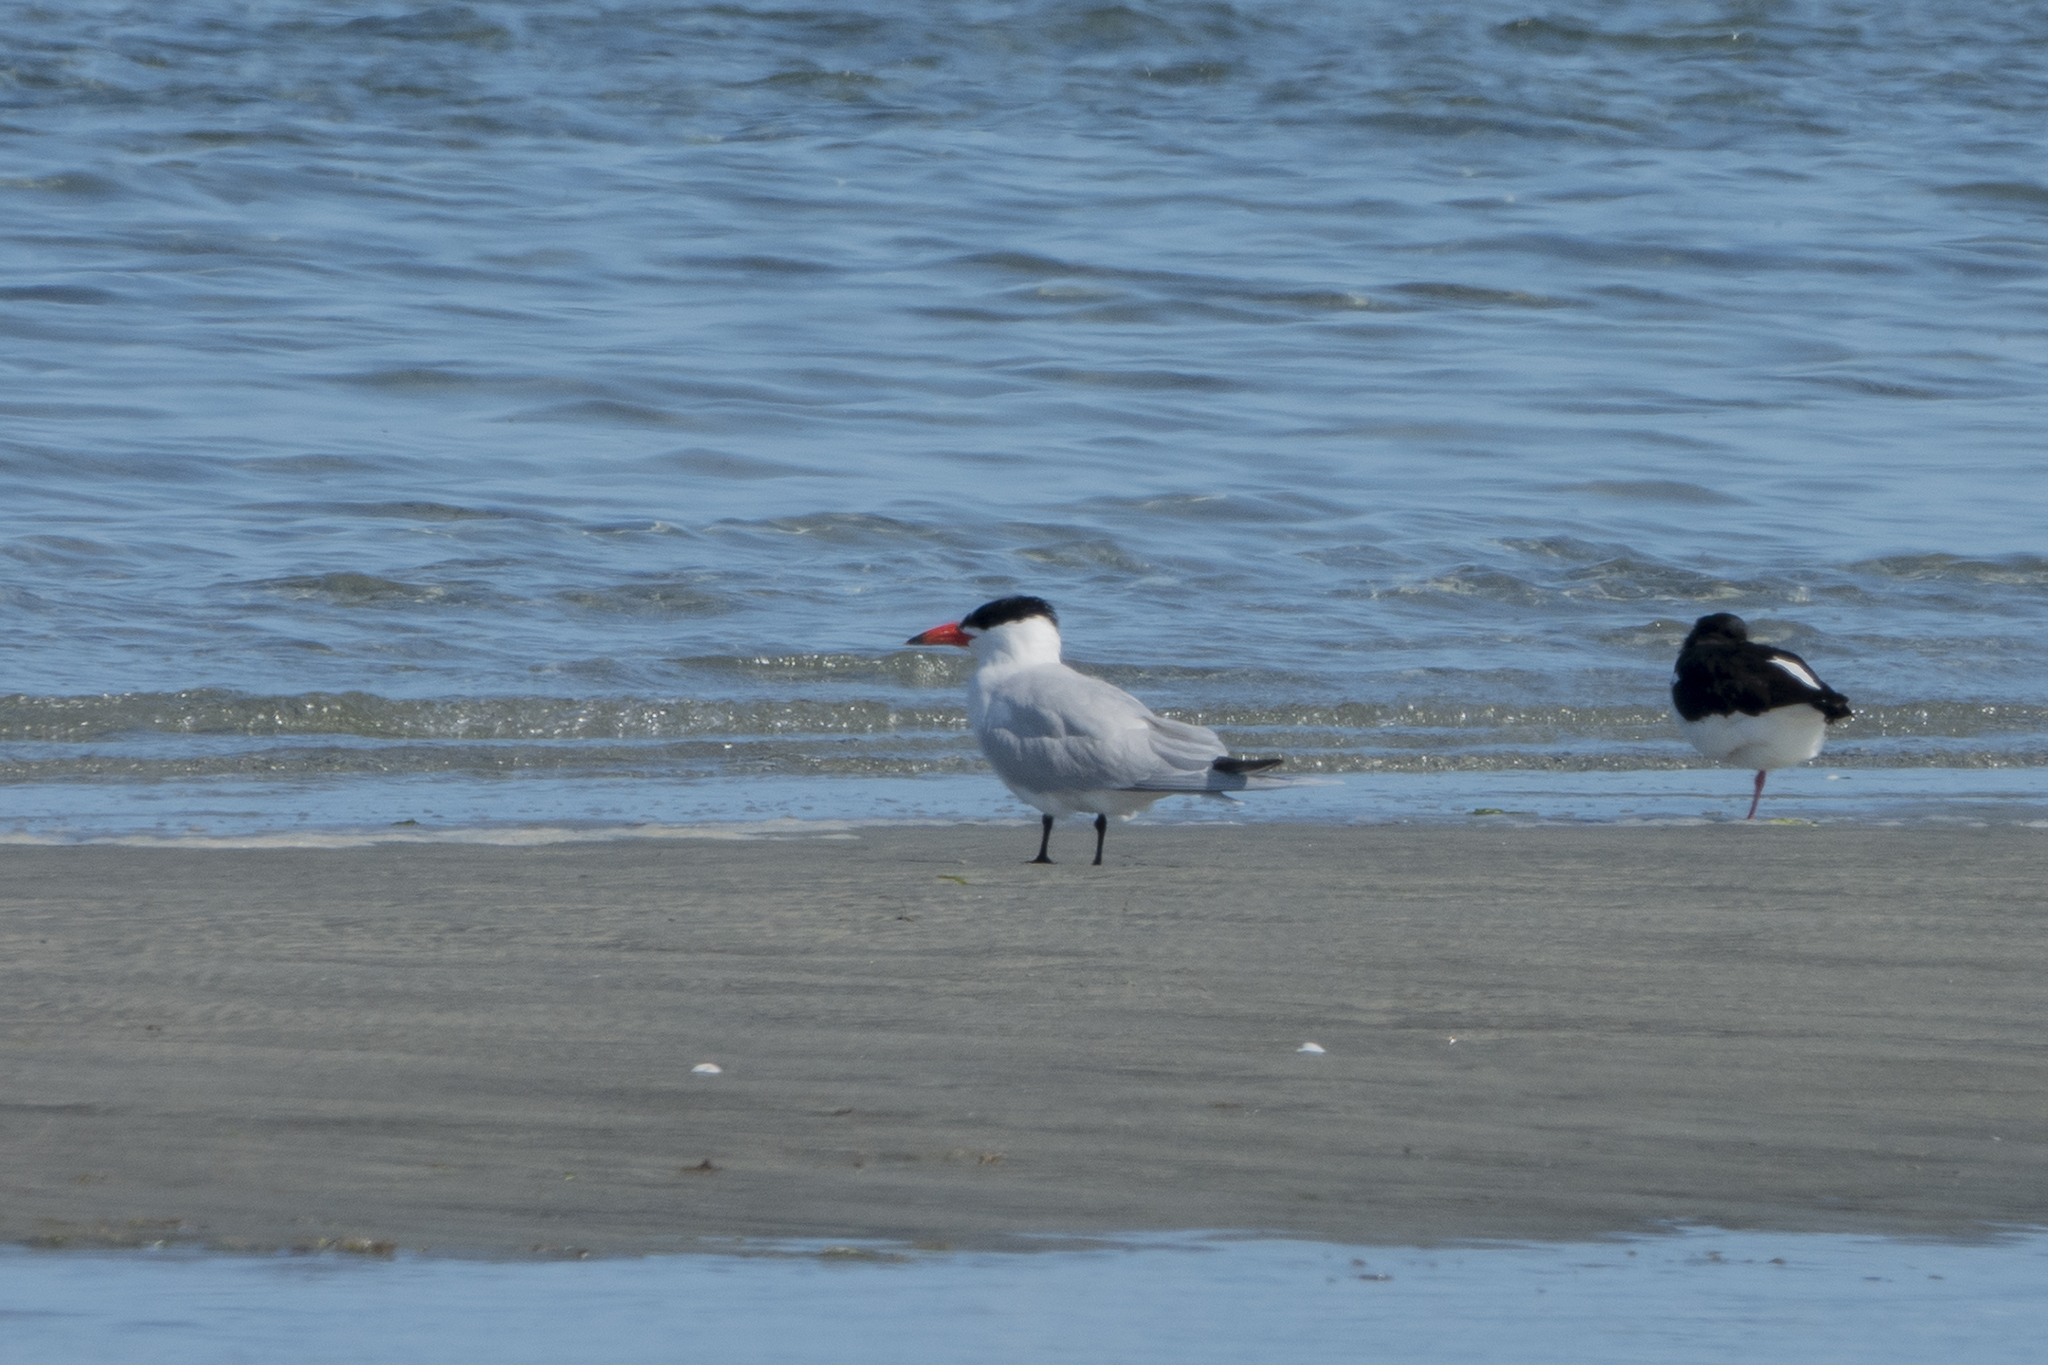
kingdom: Animalia
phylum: Chordata
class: Aves
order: Charadriiformes
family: Laridae
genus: Hydroprogne
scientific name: Hydroprogne caspia
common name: Caspian tern
